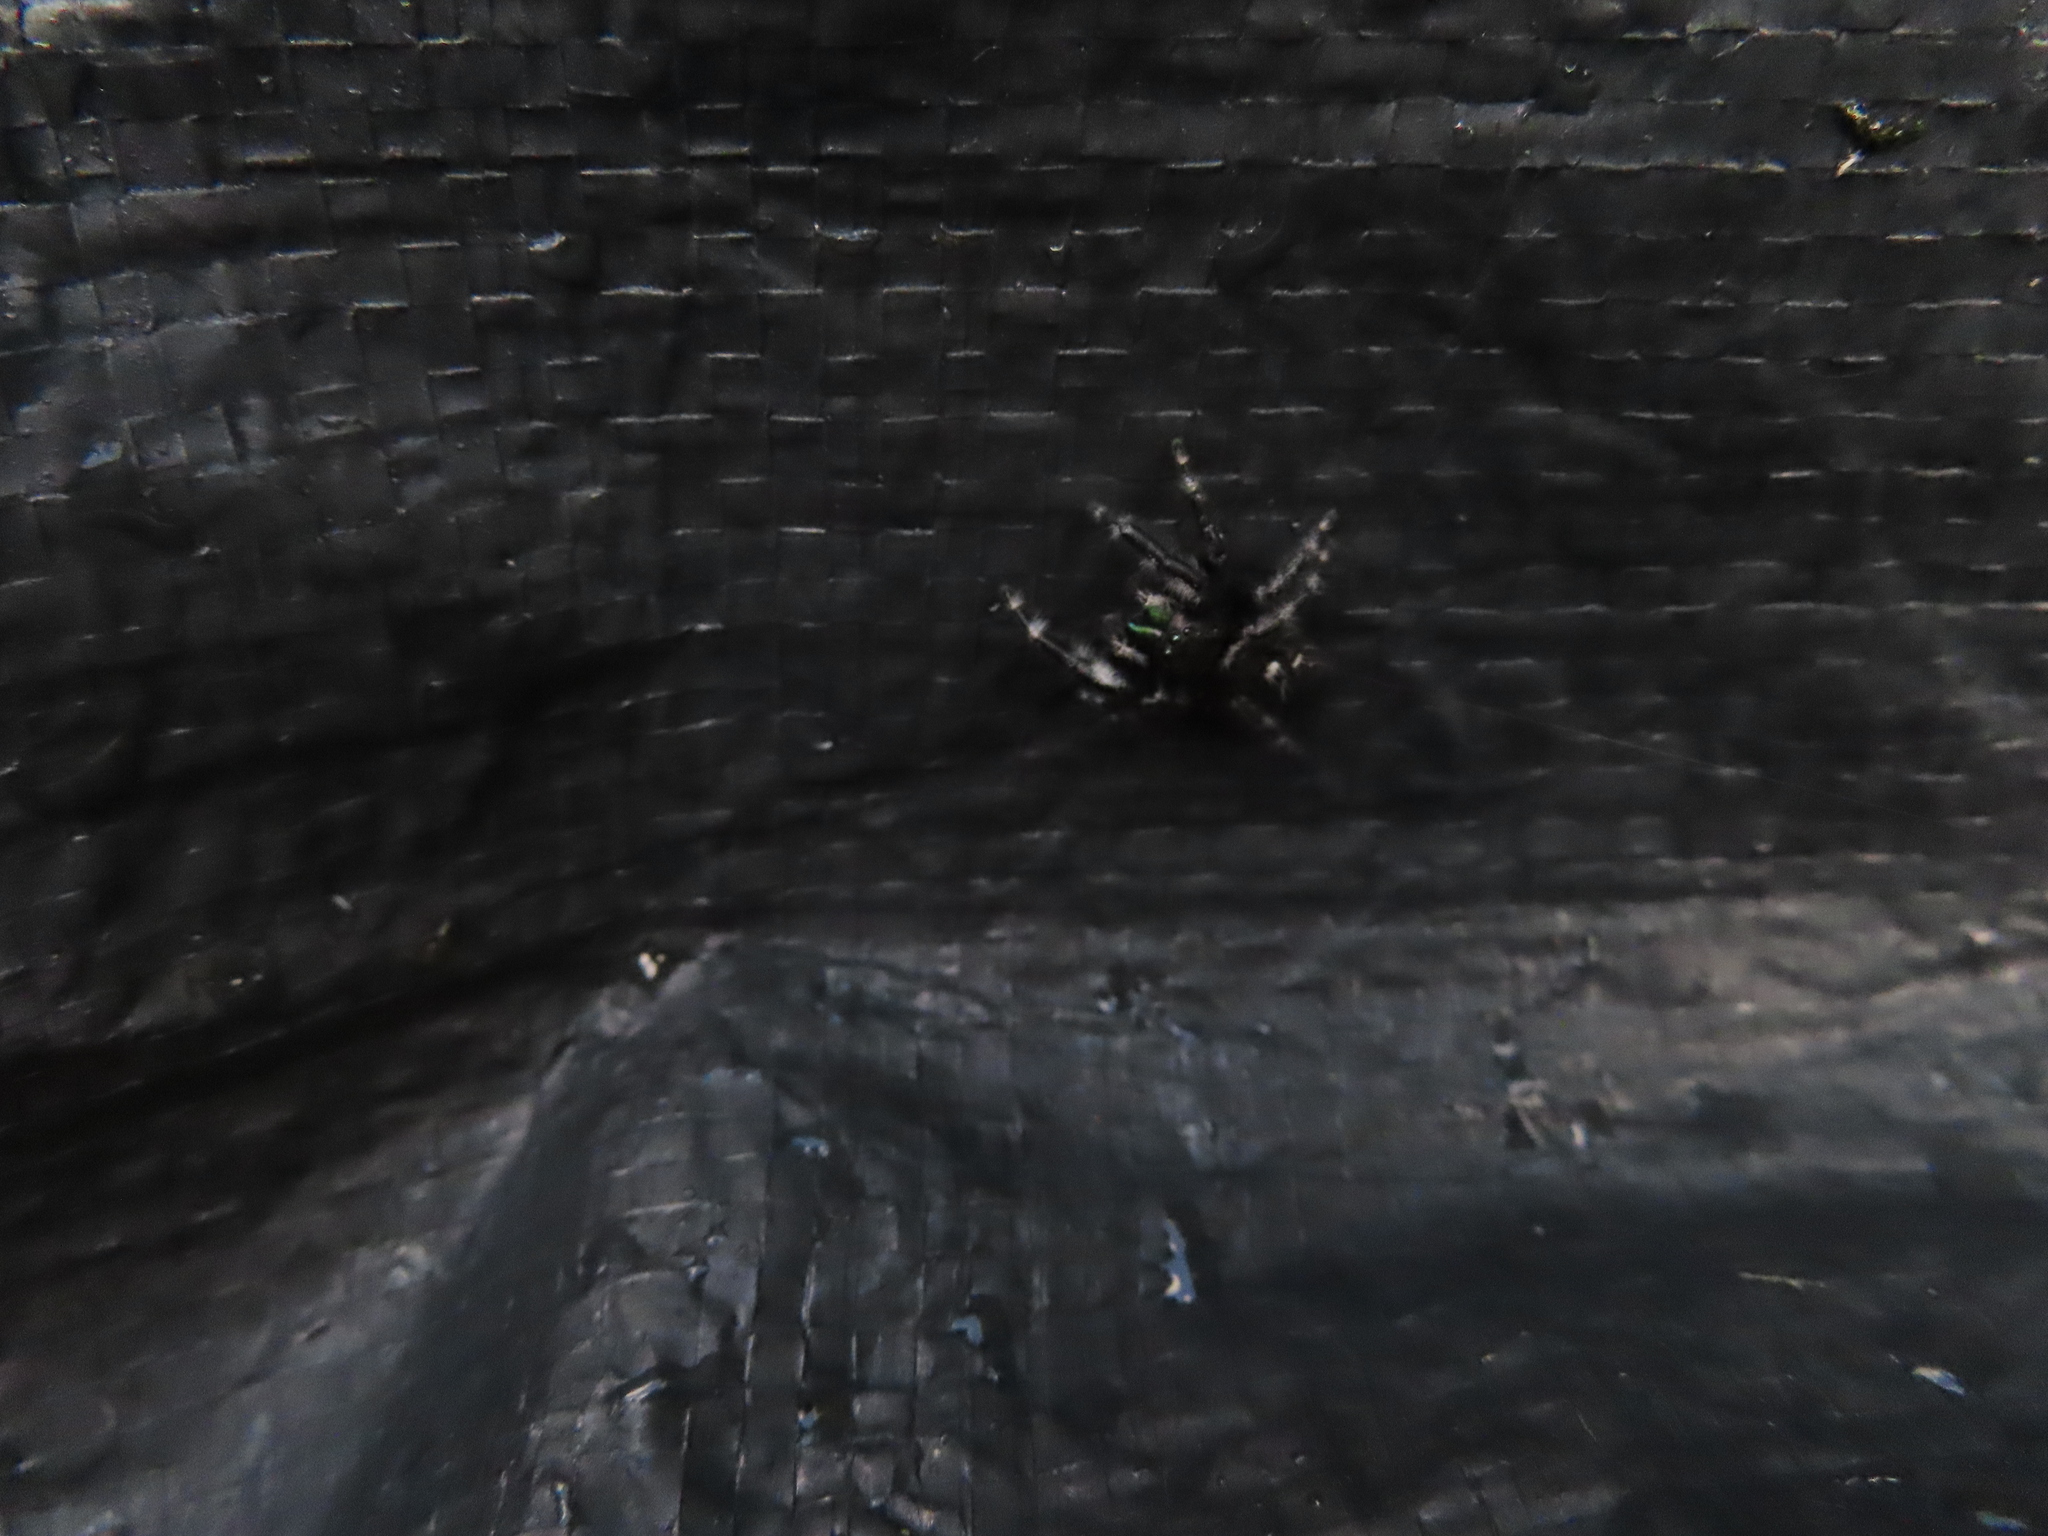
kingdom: Animalia
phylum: Arthropoda
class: Arachnida
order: Araneae
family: Salticidae
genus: Phidippus
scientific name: Phidippus audax
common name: Bold jumper
